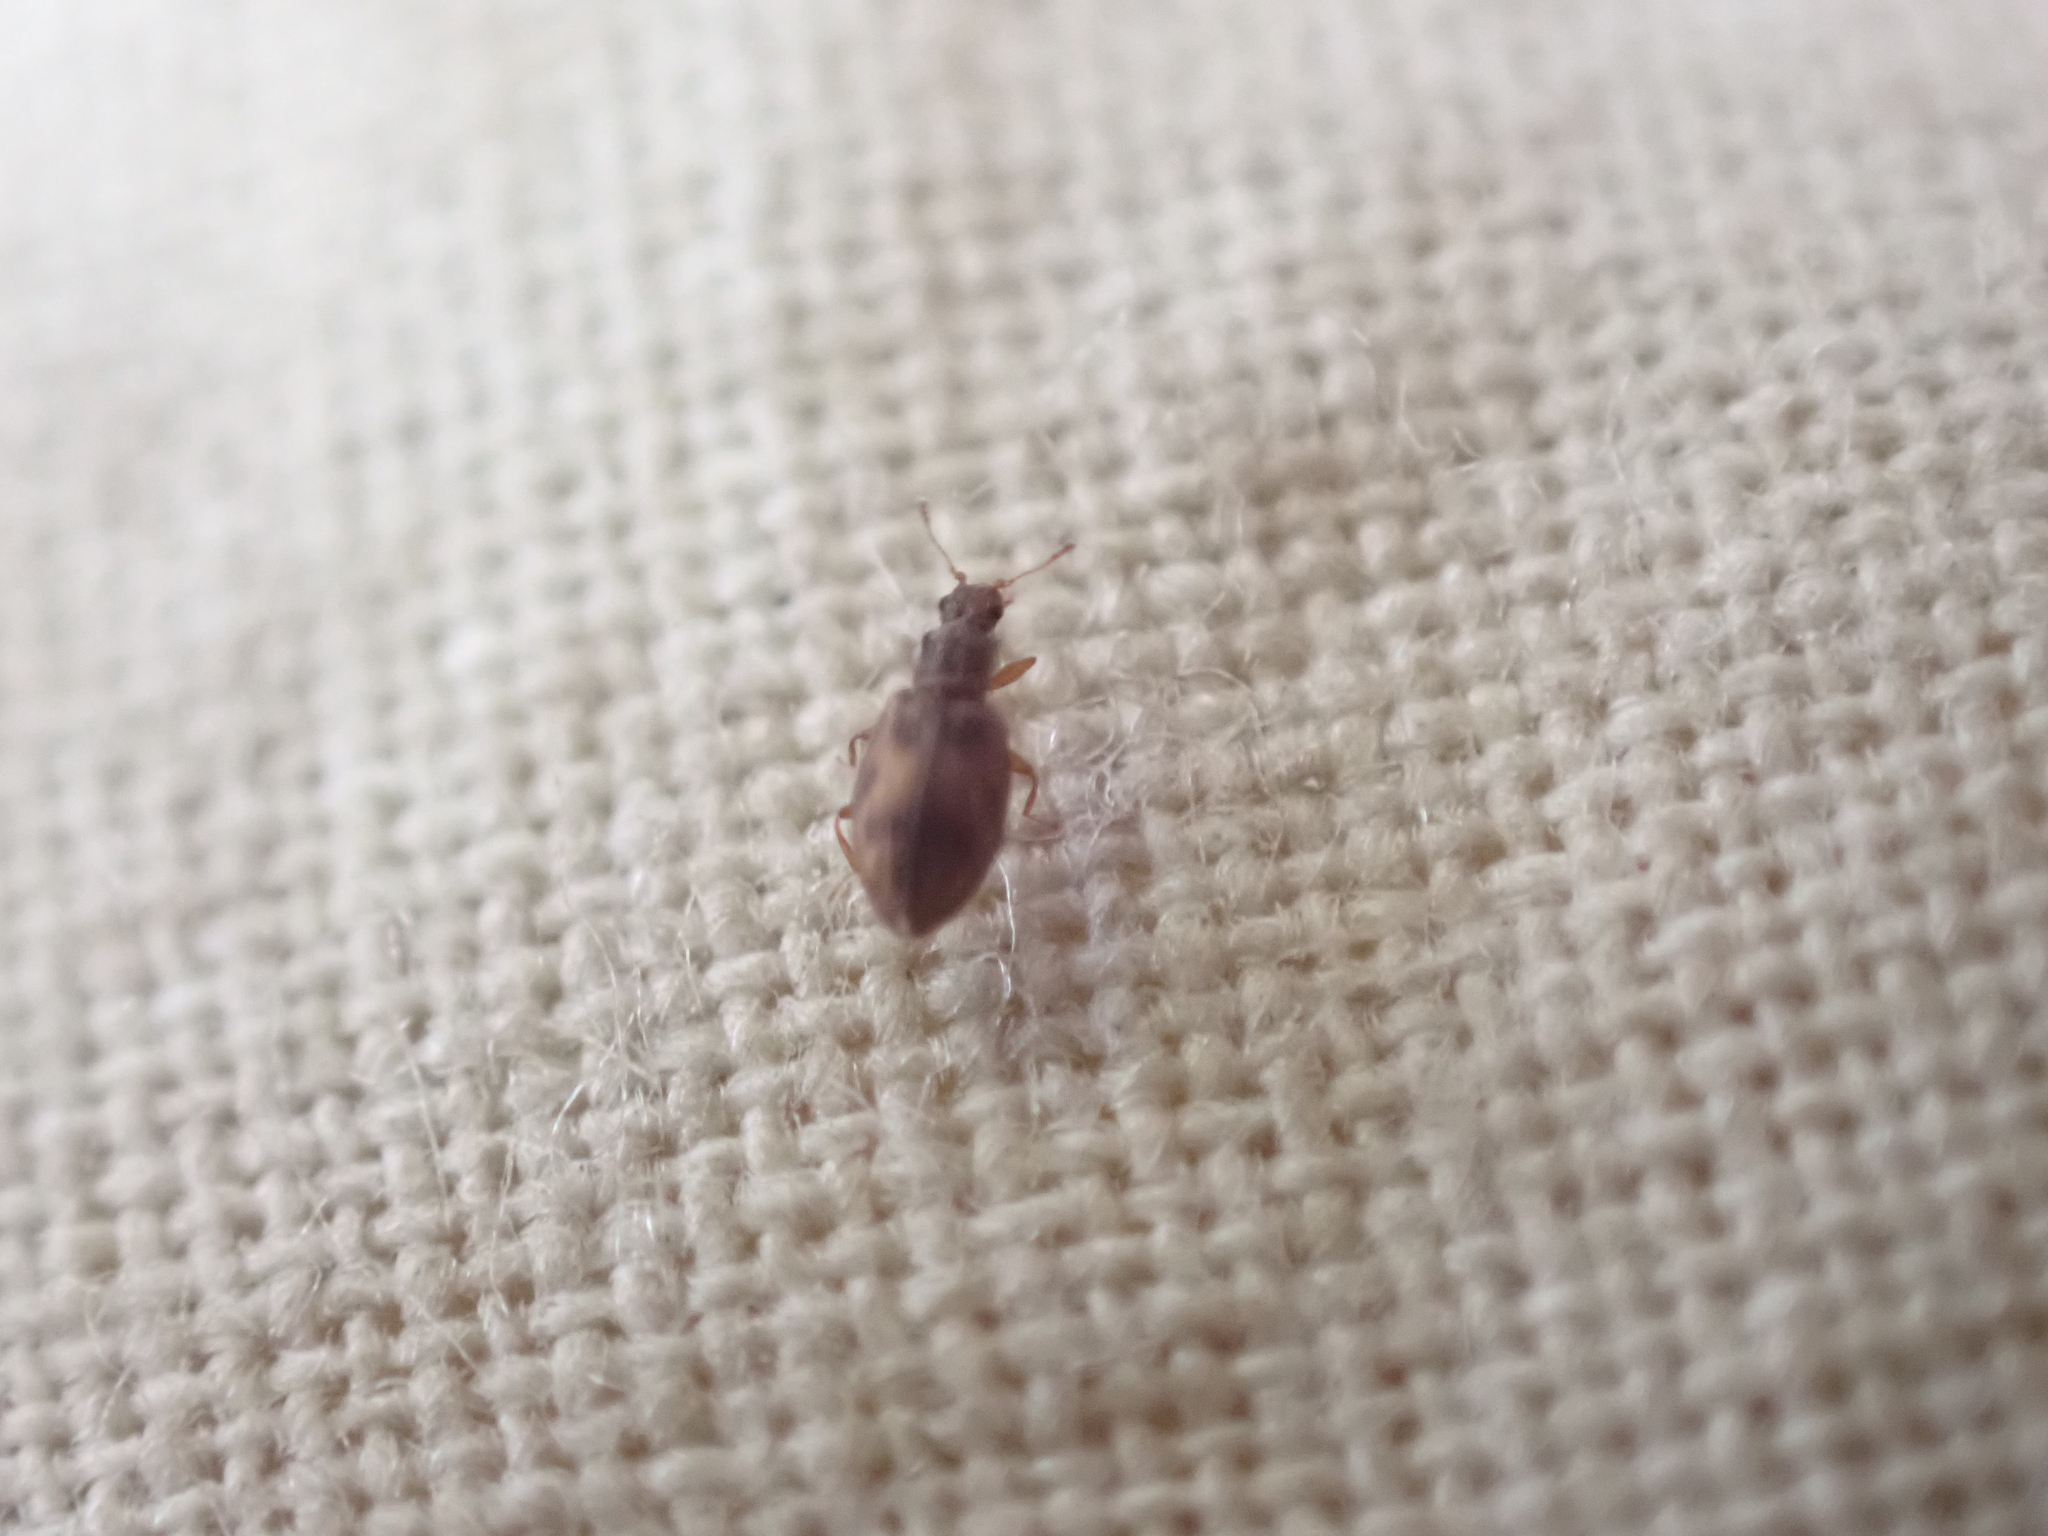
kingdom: Animalia
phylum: Arthropoda
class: Insecta
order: Coleoptera
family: Latridiidae
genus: Cartodere
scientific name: Cartodere bifasciata
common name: Plaster beetle
